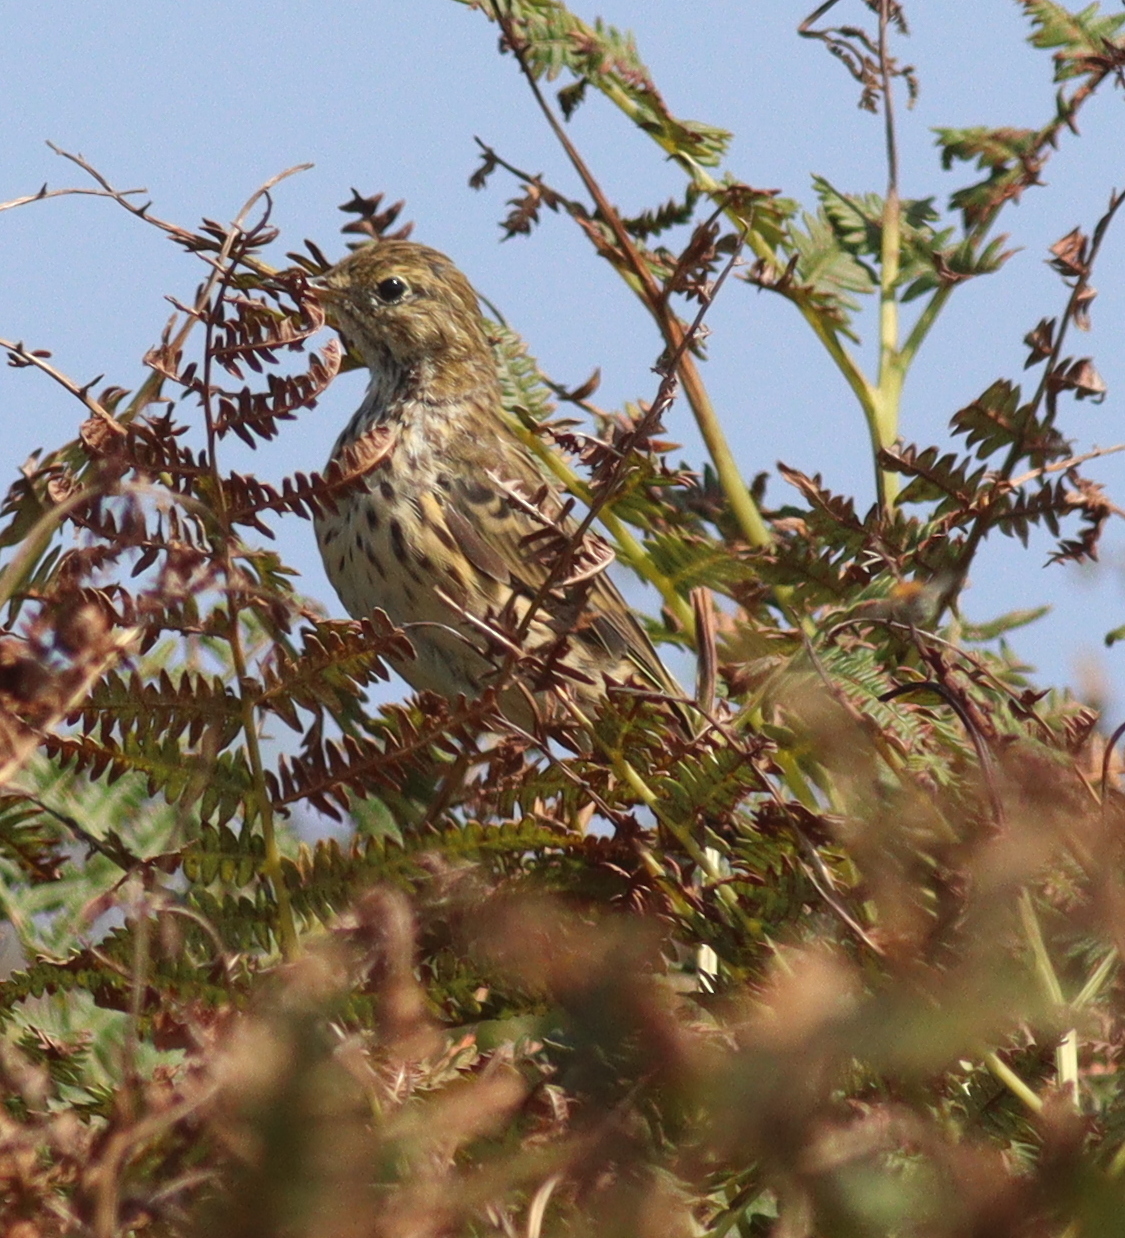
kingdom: Animalia
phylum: Chordata
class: Aves
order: Passeriformes
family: Motacillidae
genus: Anthus
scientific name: Anthus pratensis
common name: Meadow pipit
